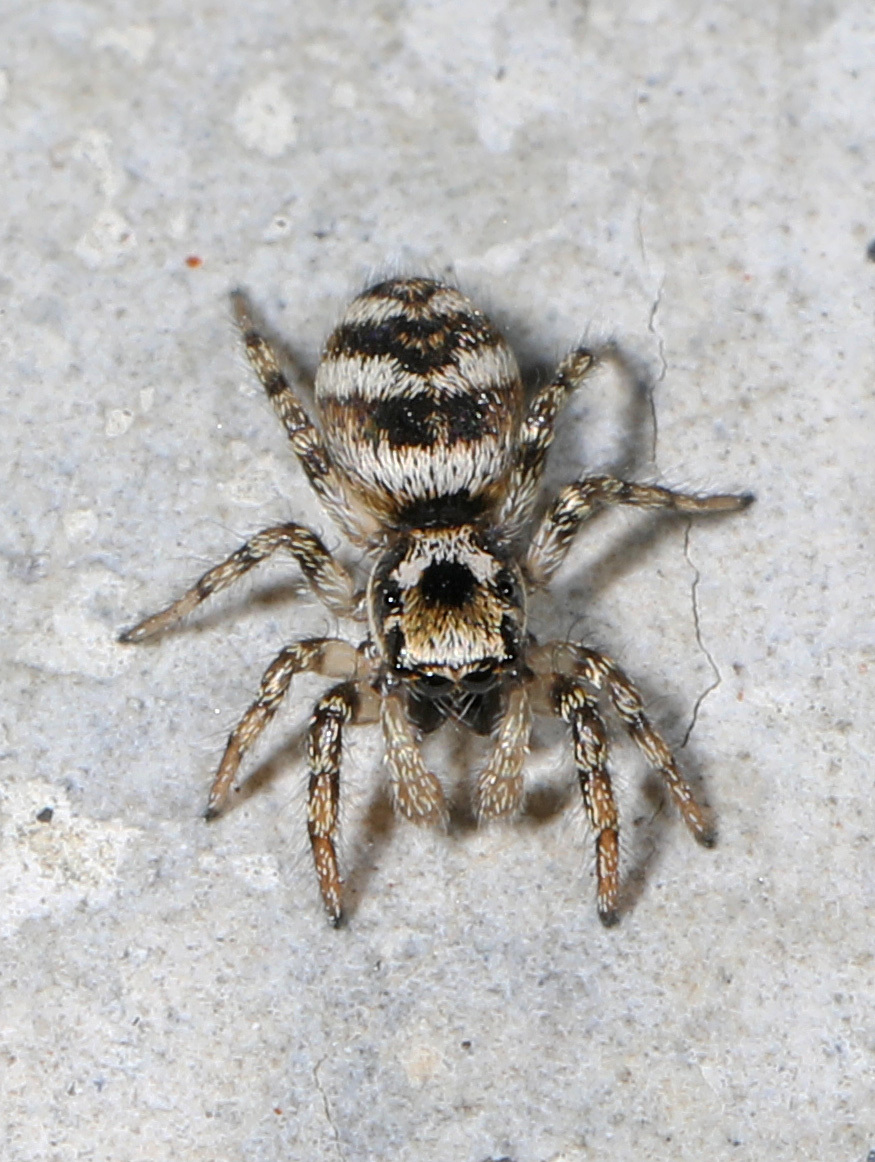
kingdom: Animalia
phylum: Arthropoda
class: Arachnida
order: Araneae
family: Salticidae
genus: Salticus
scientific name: Salticus scenicus
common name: Zebra jumper
